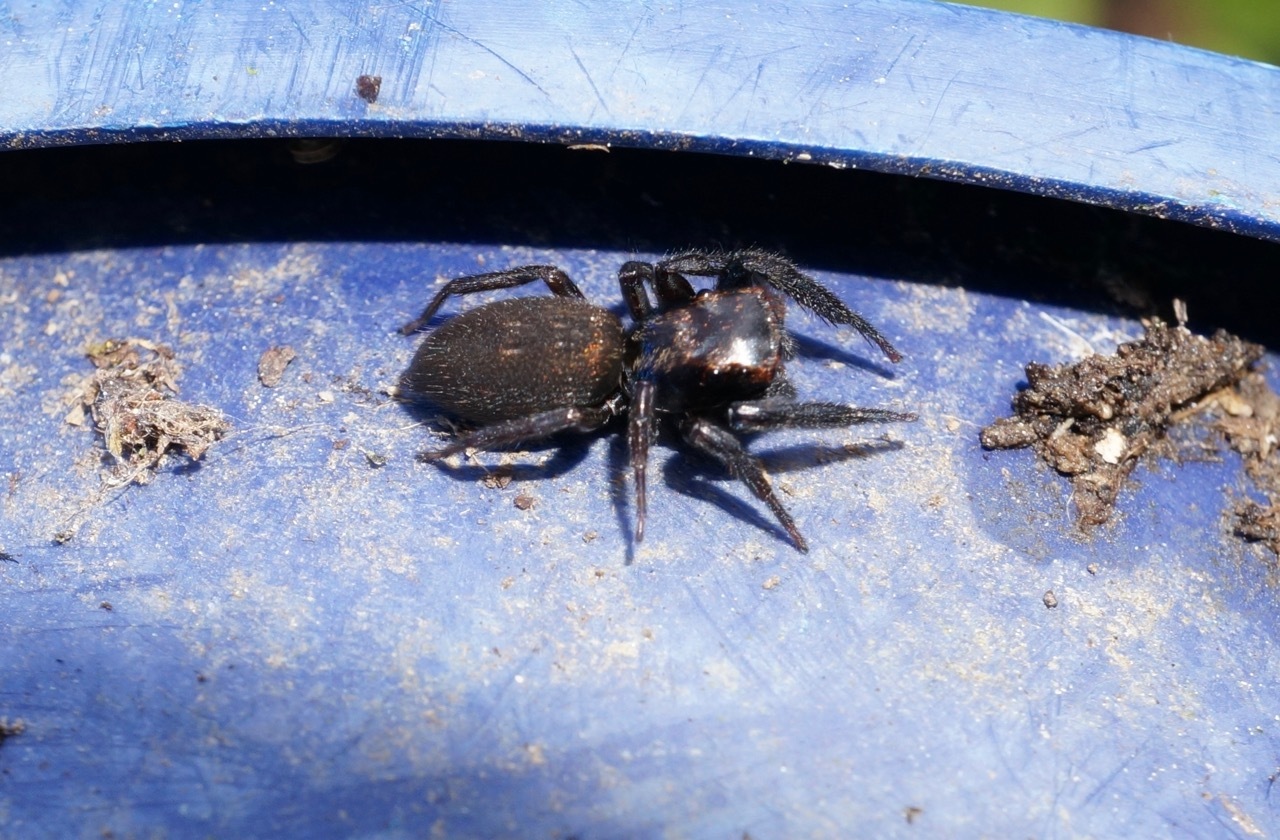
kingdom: Animalia
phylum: Arthropoda
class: Arachnida
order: Araneae
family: Salticidae
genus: Trite
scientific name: Trite auricoma
